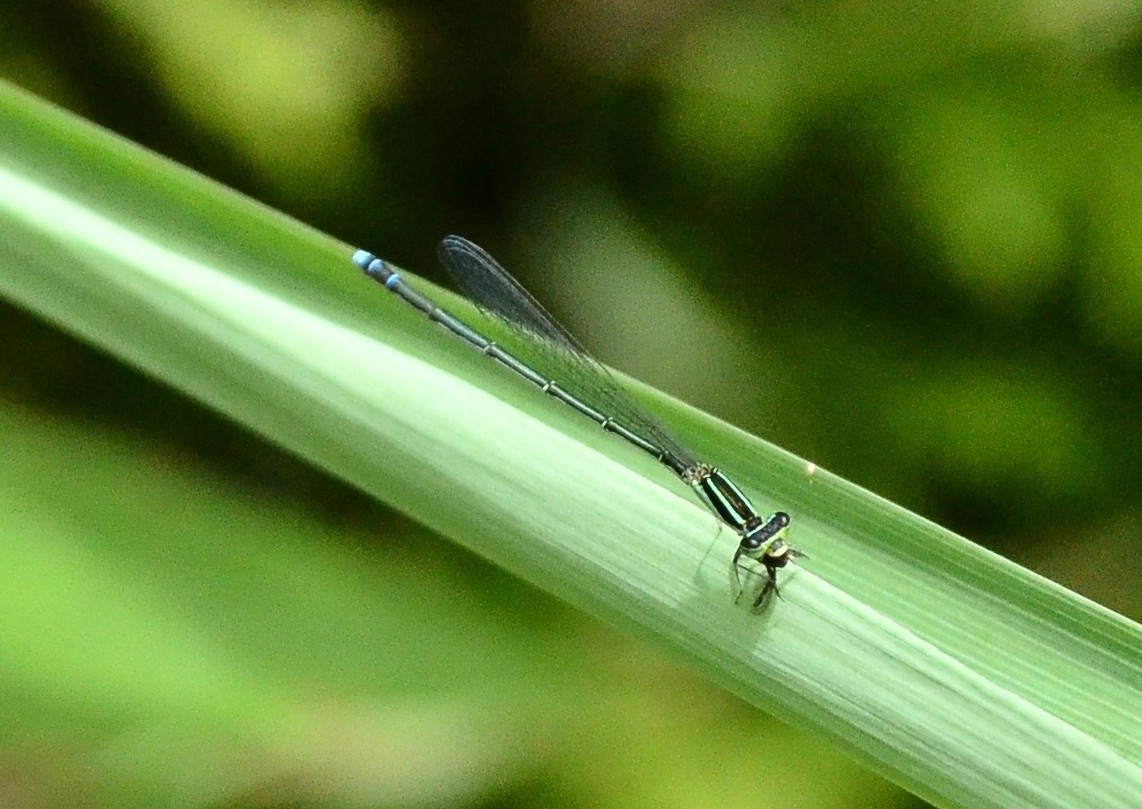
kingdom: Animalia
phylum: Arthropoda
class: Insecta
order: Odonata
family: Coenagrionidae
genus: Aciagrion
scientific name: Aciagrion occidentale
